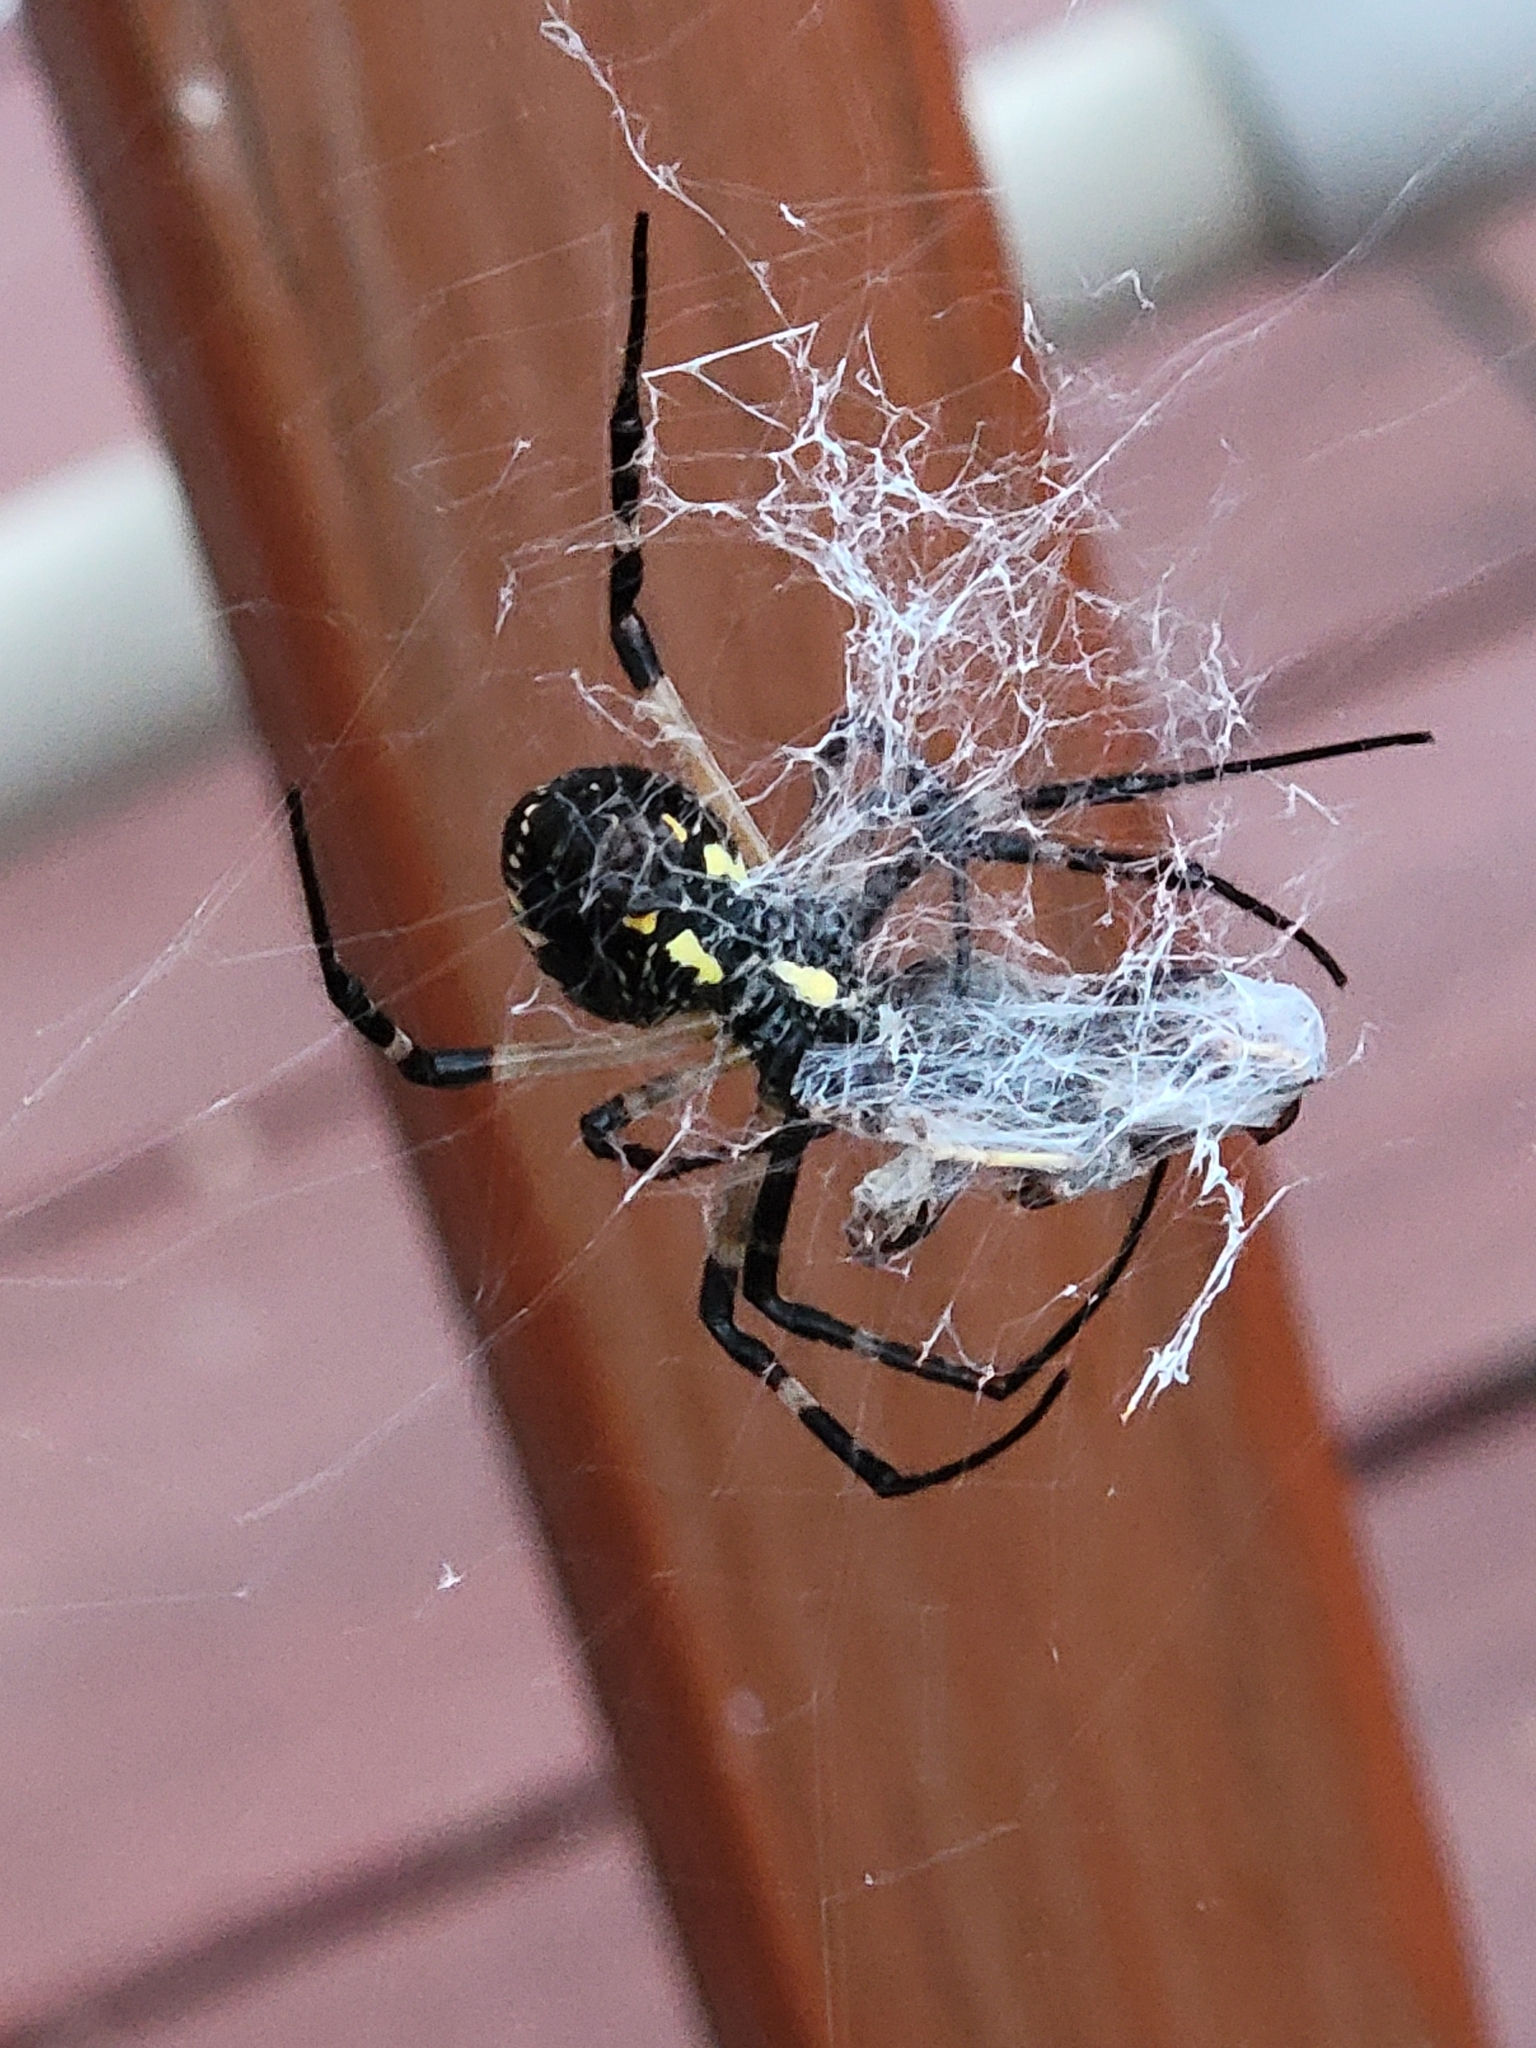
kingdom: Animalia
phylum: Arthropoda
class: Arachnida
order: Araneae
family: Araneidae
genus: Argiope
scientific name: Argiope aurantia
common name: Orb weavers
